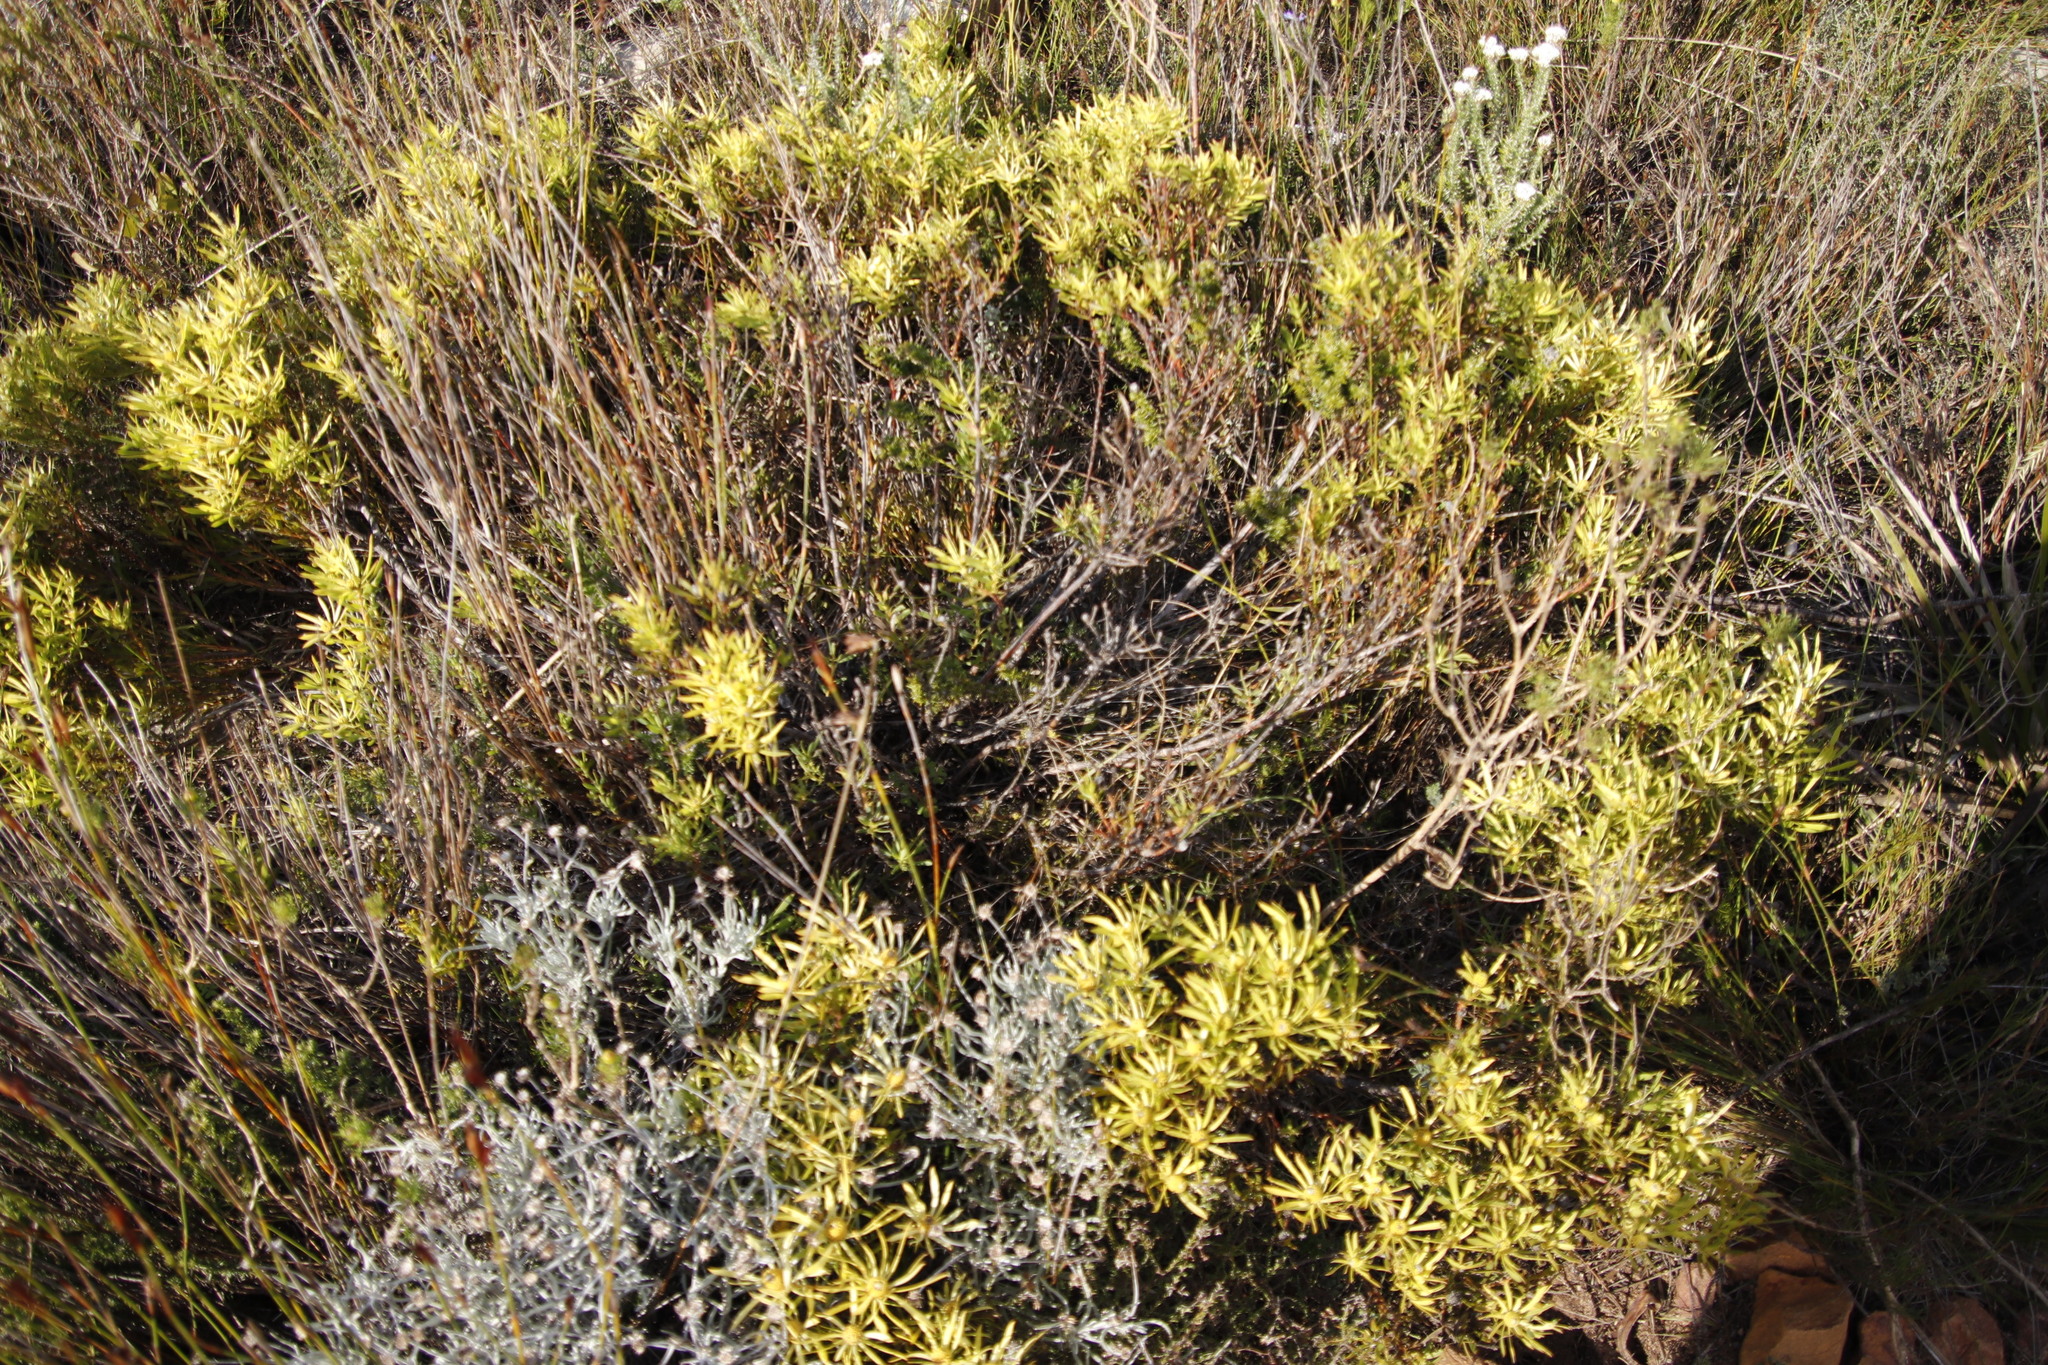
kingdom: Plantae
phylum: Tracheophyta
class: Magnoliopsida
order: Proteales
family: Proteaceae
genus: Leucadendron
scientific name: Leucadendron salignum
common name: Common sunshine conebush
